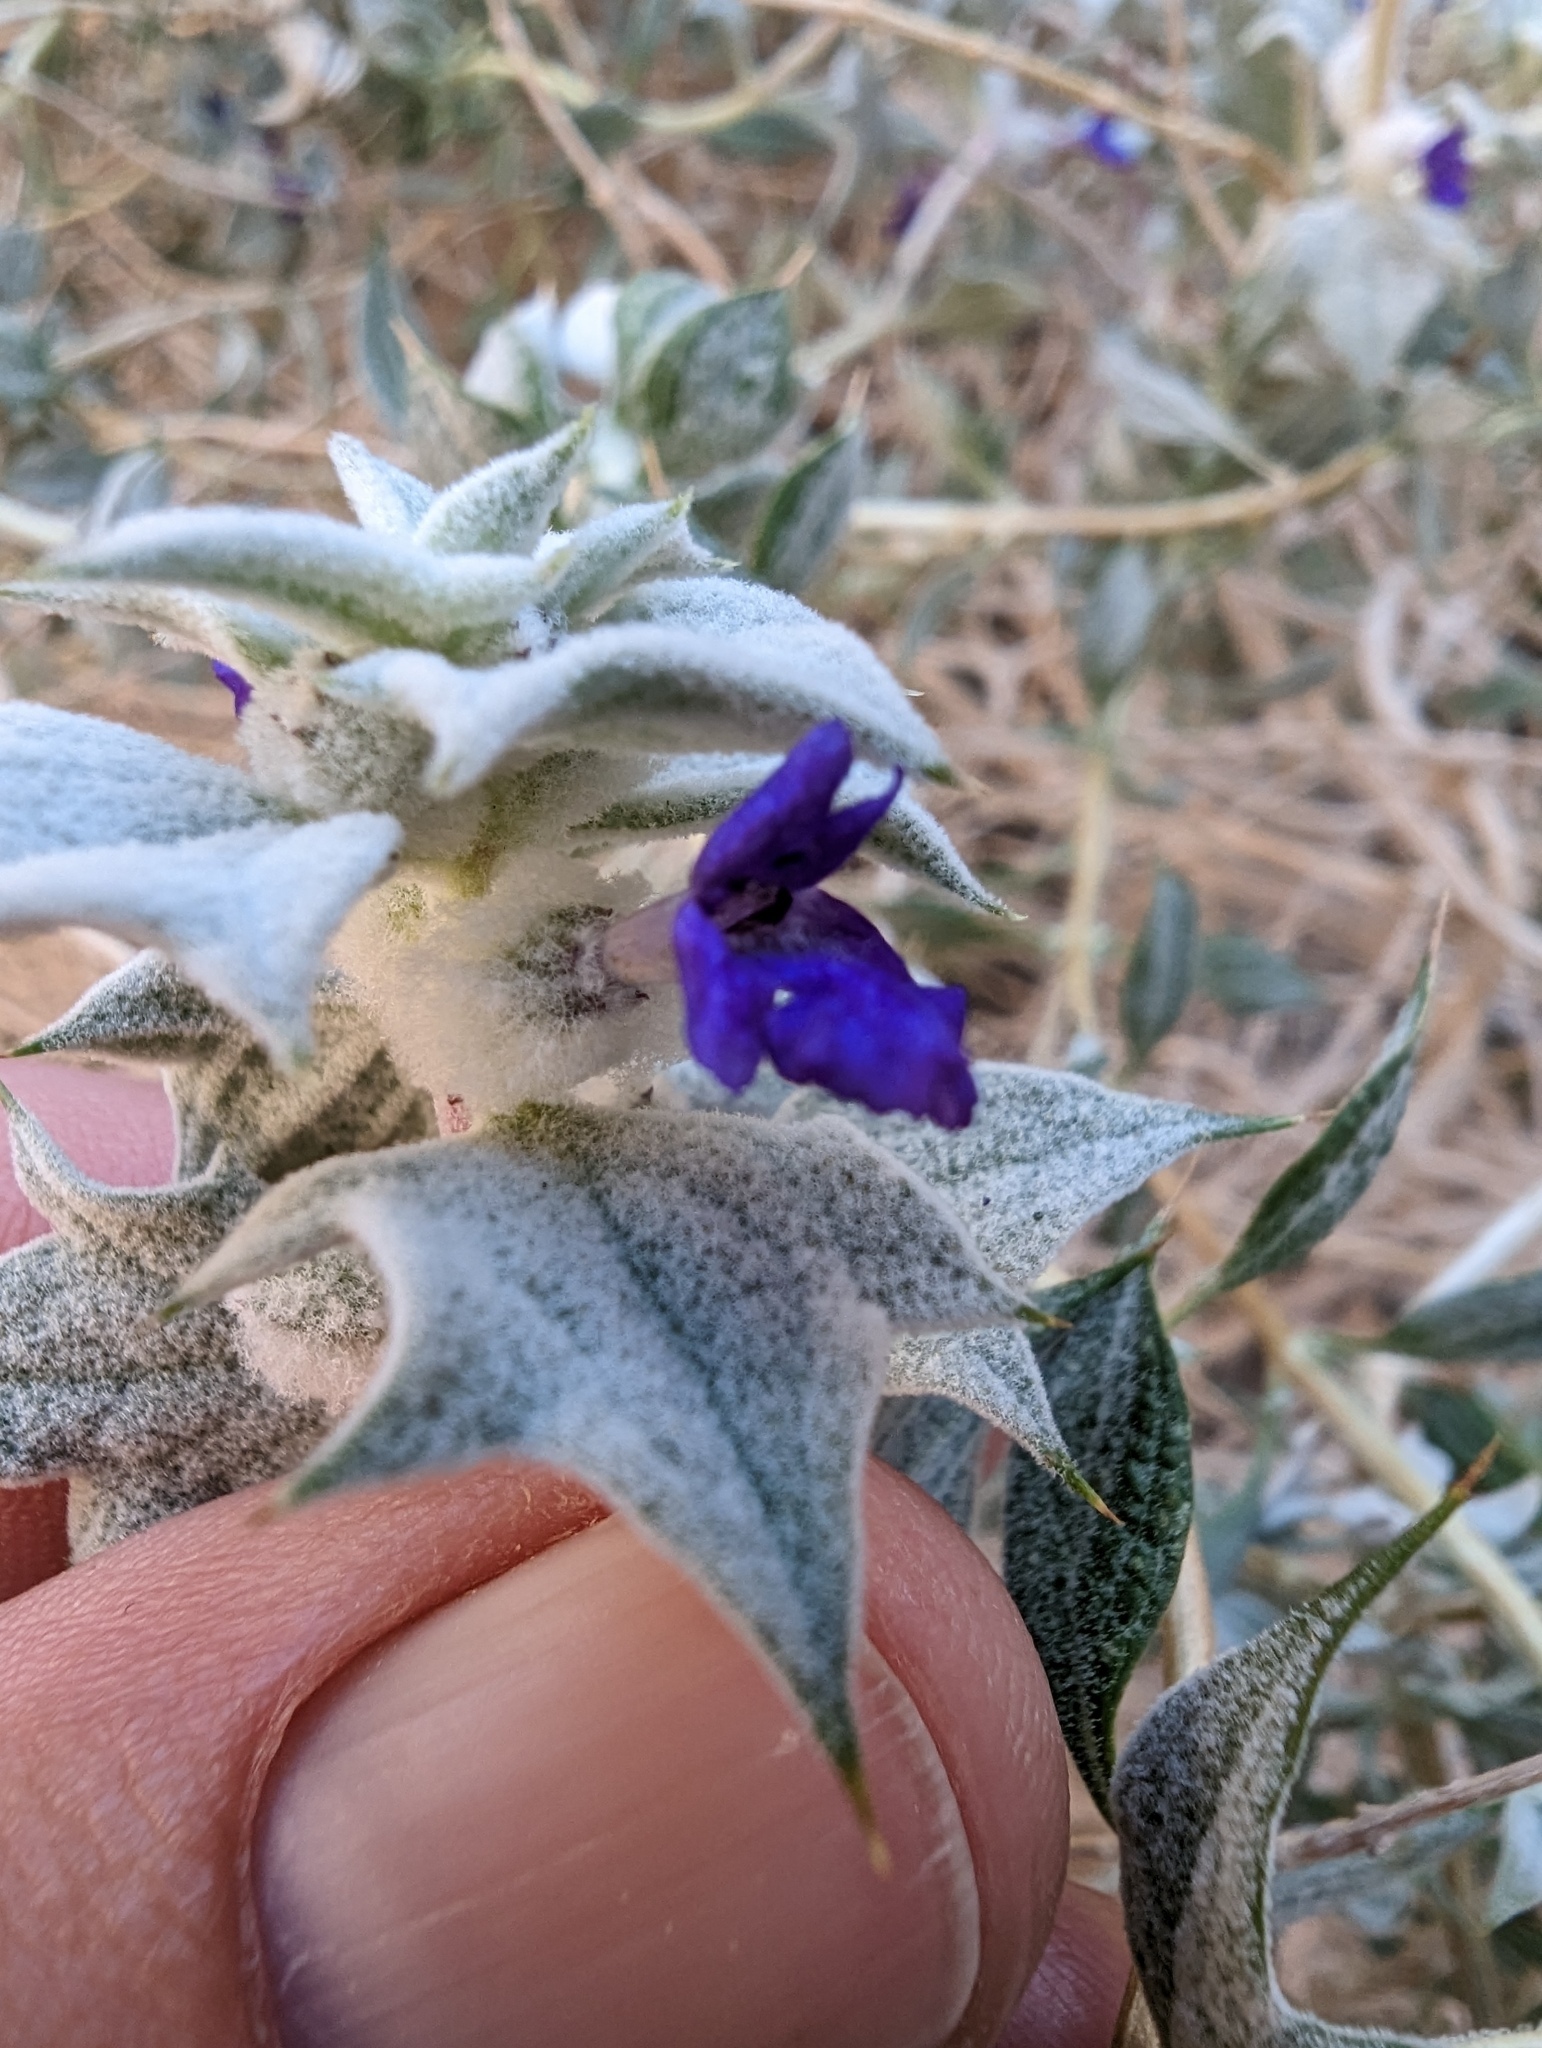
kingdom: Plantae
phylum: Tracheophyta
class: Magnoliopsida
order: Lamiales
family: Lamiaceae
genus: Salvia
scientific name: Salvia funerea
